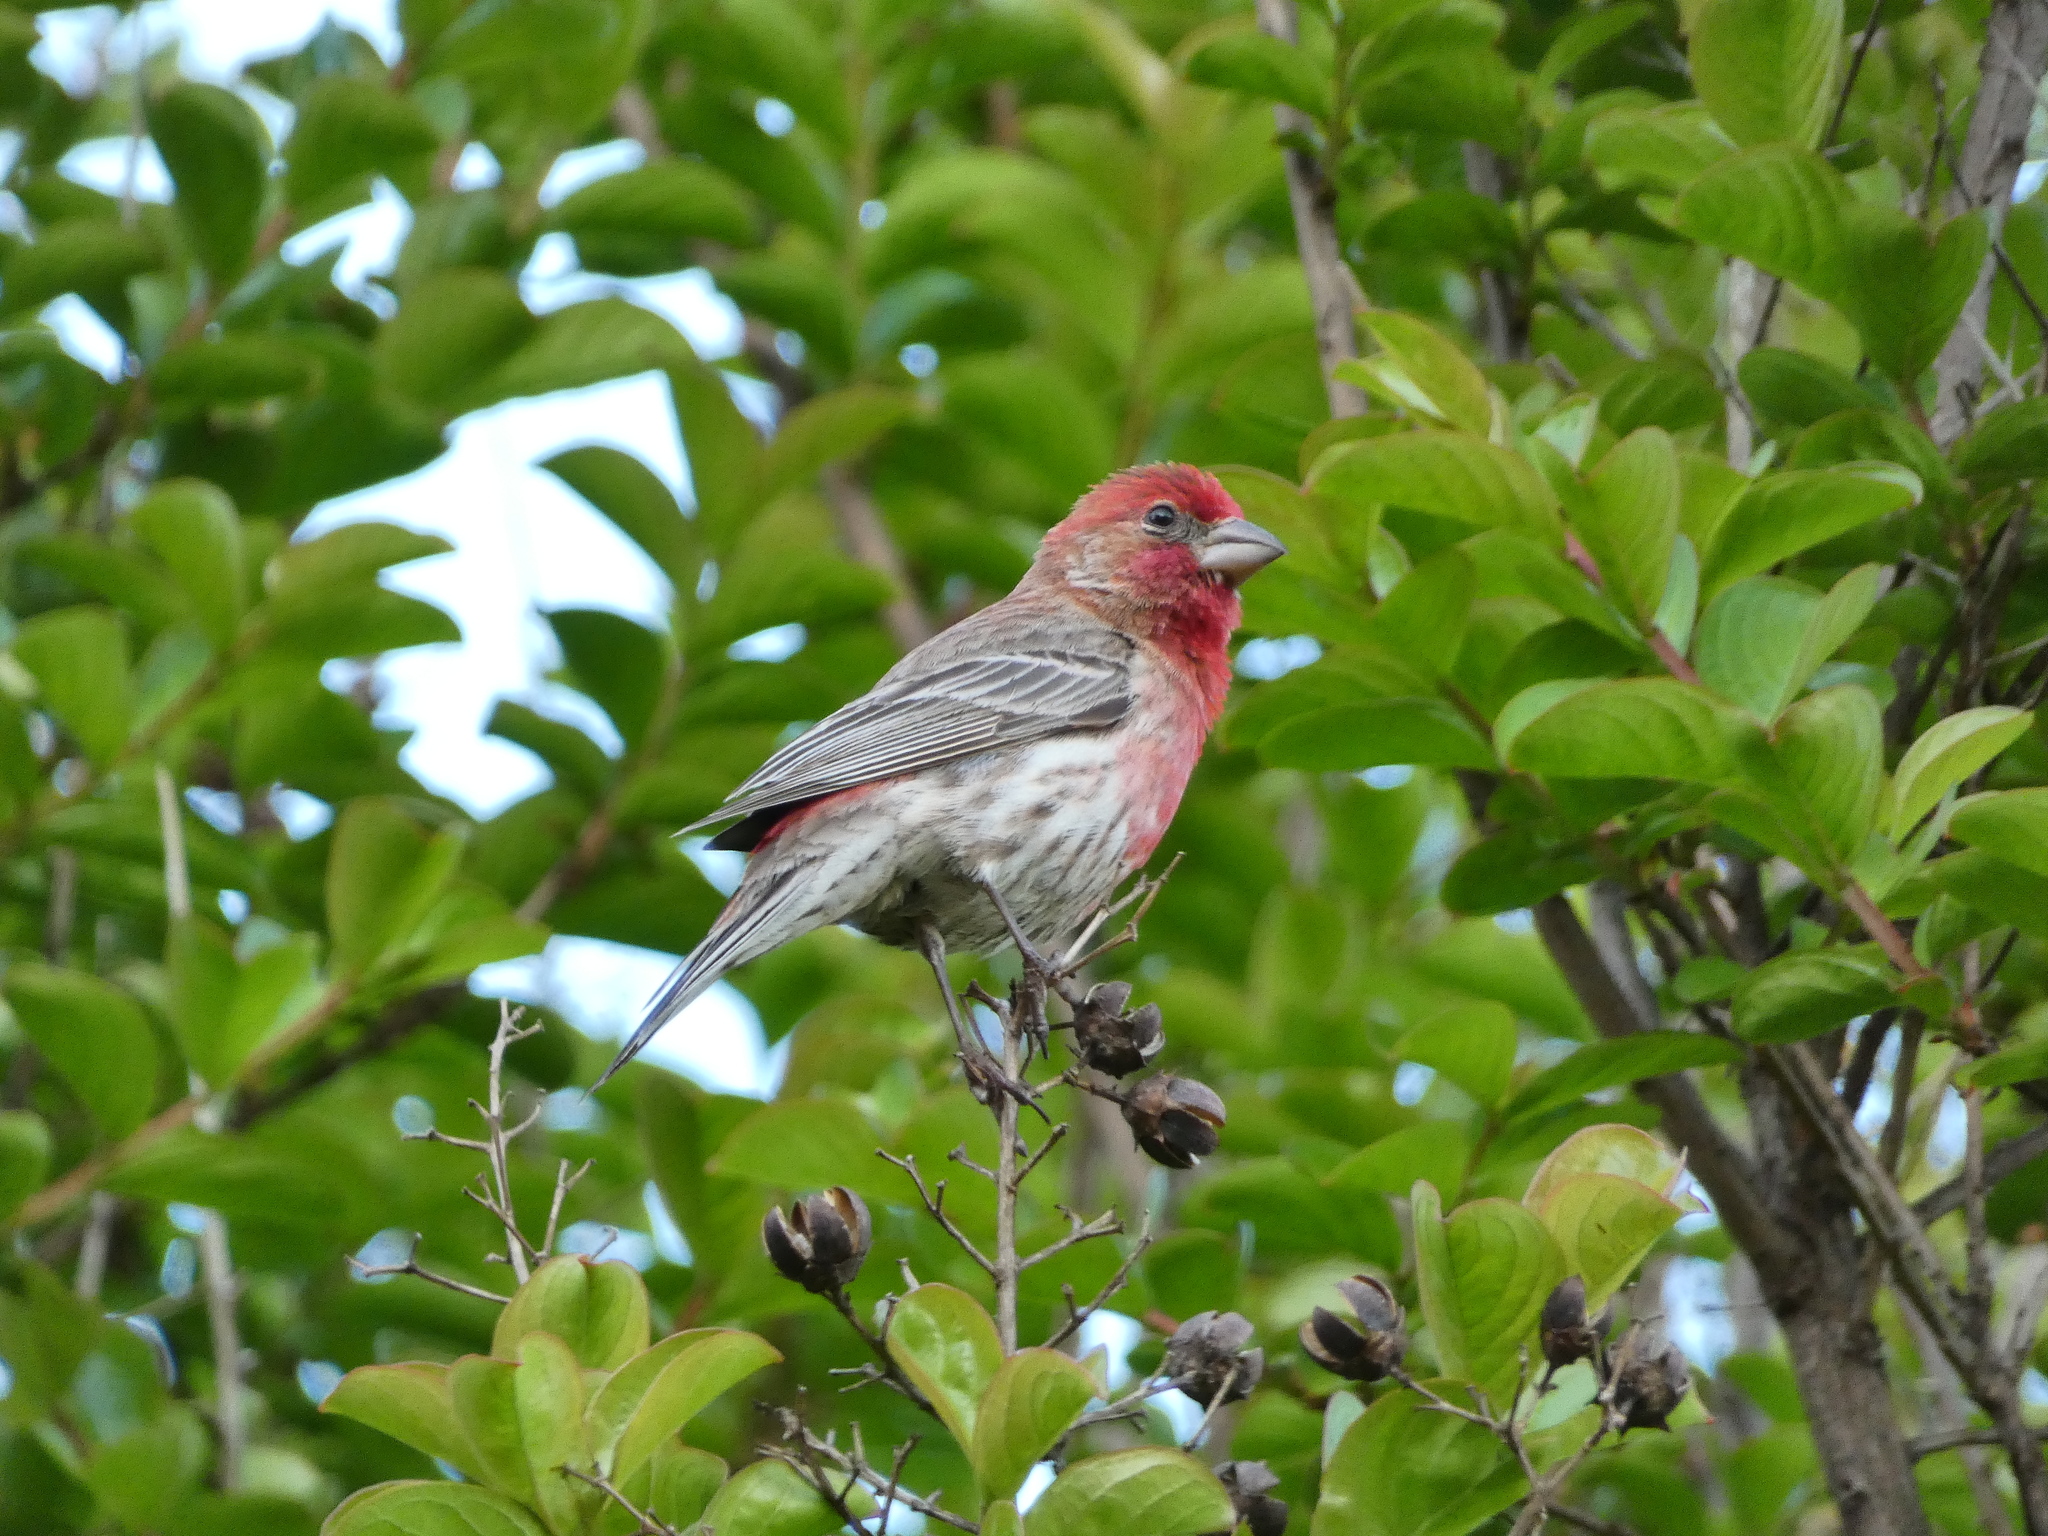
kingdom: Animalia
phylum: Chordata
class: Aves
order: Passeriformes
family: Fringillidae
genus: Haemorhous
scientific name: Haemorhous mexicanus
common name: House finch
